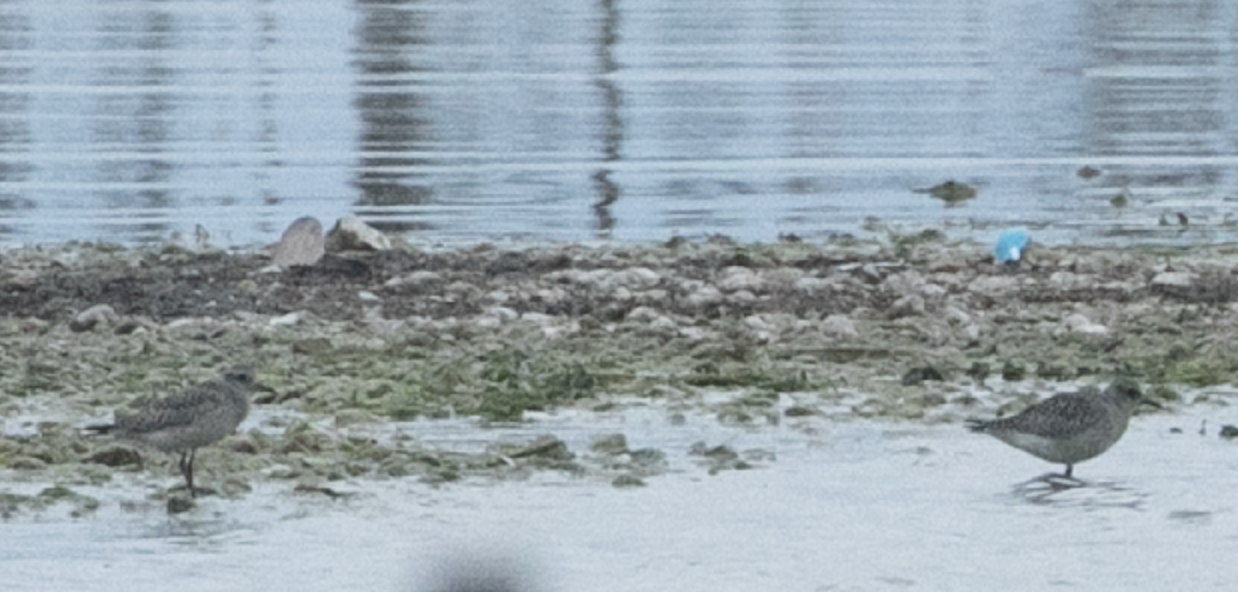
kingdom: Animalia
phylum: Chordata
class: Aves
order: Charadriiformes
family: Charadriidae
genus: Pluvialis
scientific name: Pluvialis squatarola
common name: Grey plover
